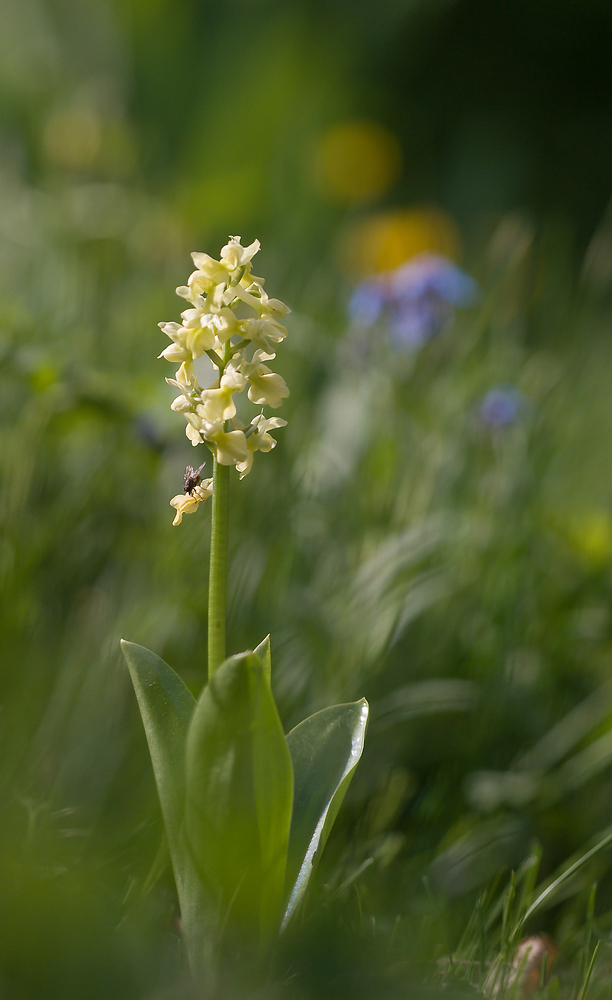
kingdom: Plantae
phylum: Tracheophyta
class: Liliopsida
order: Asparagales
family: Orchidaceae
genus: Orchis
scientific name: Orchis pallens
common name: Pale-flowered orchid
